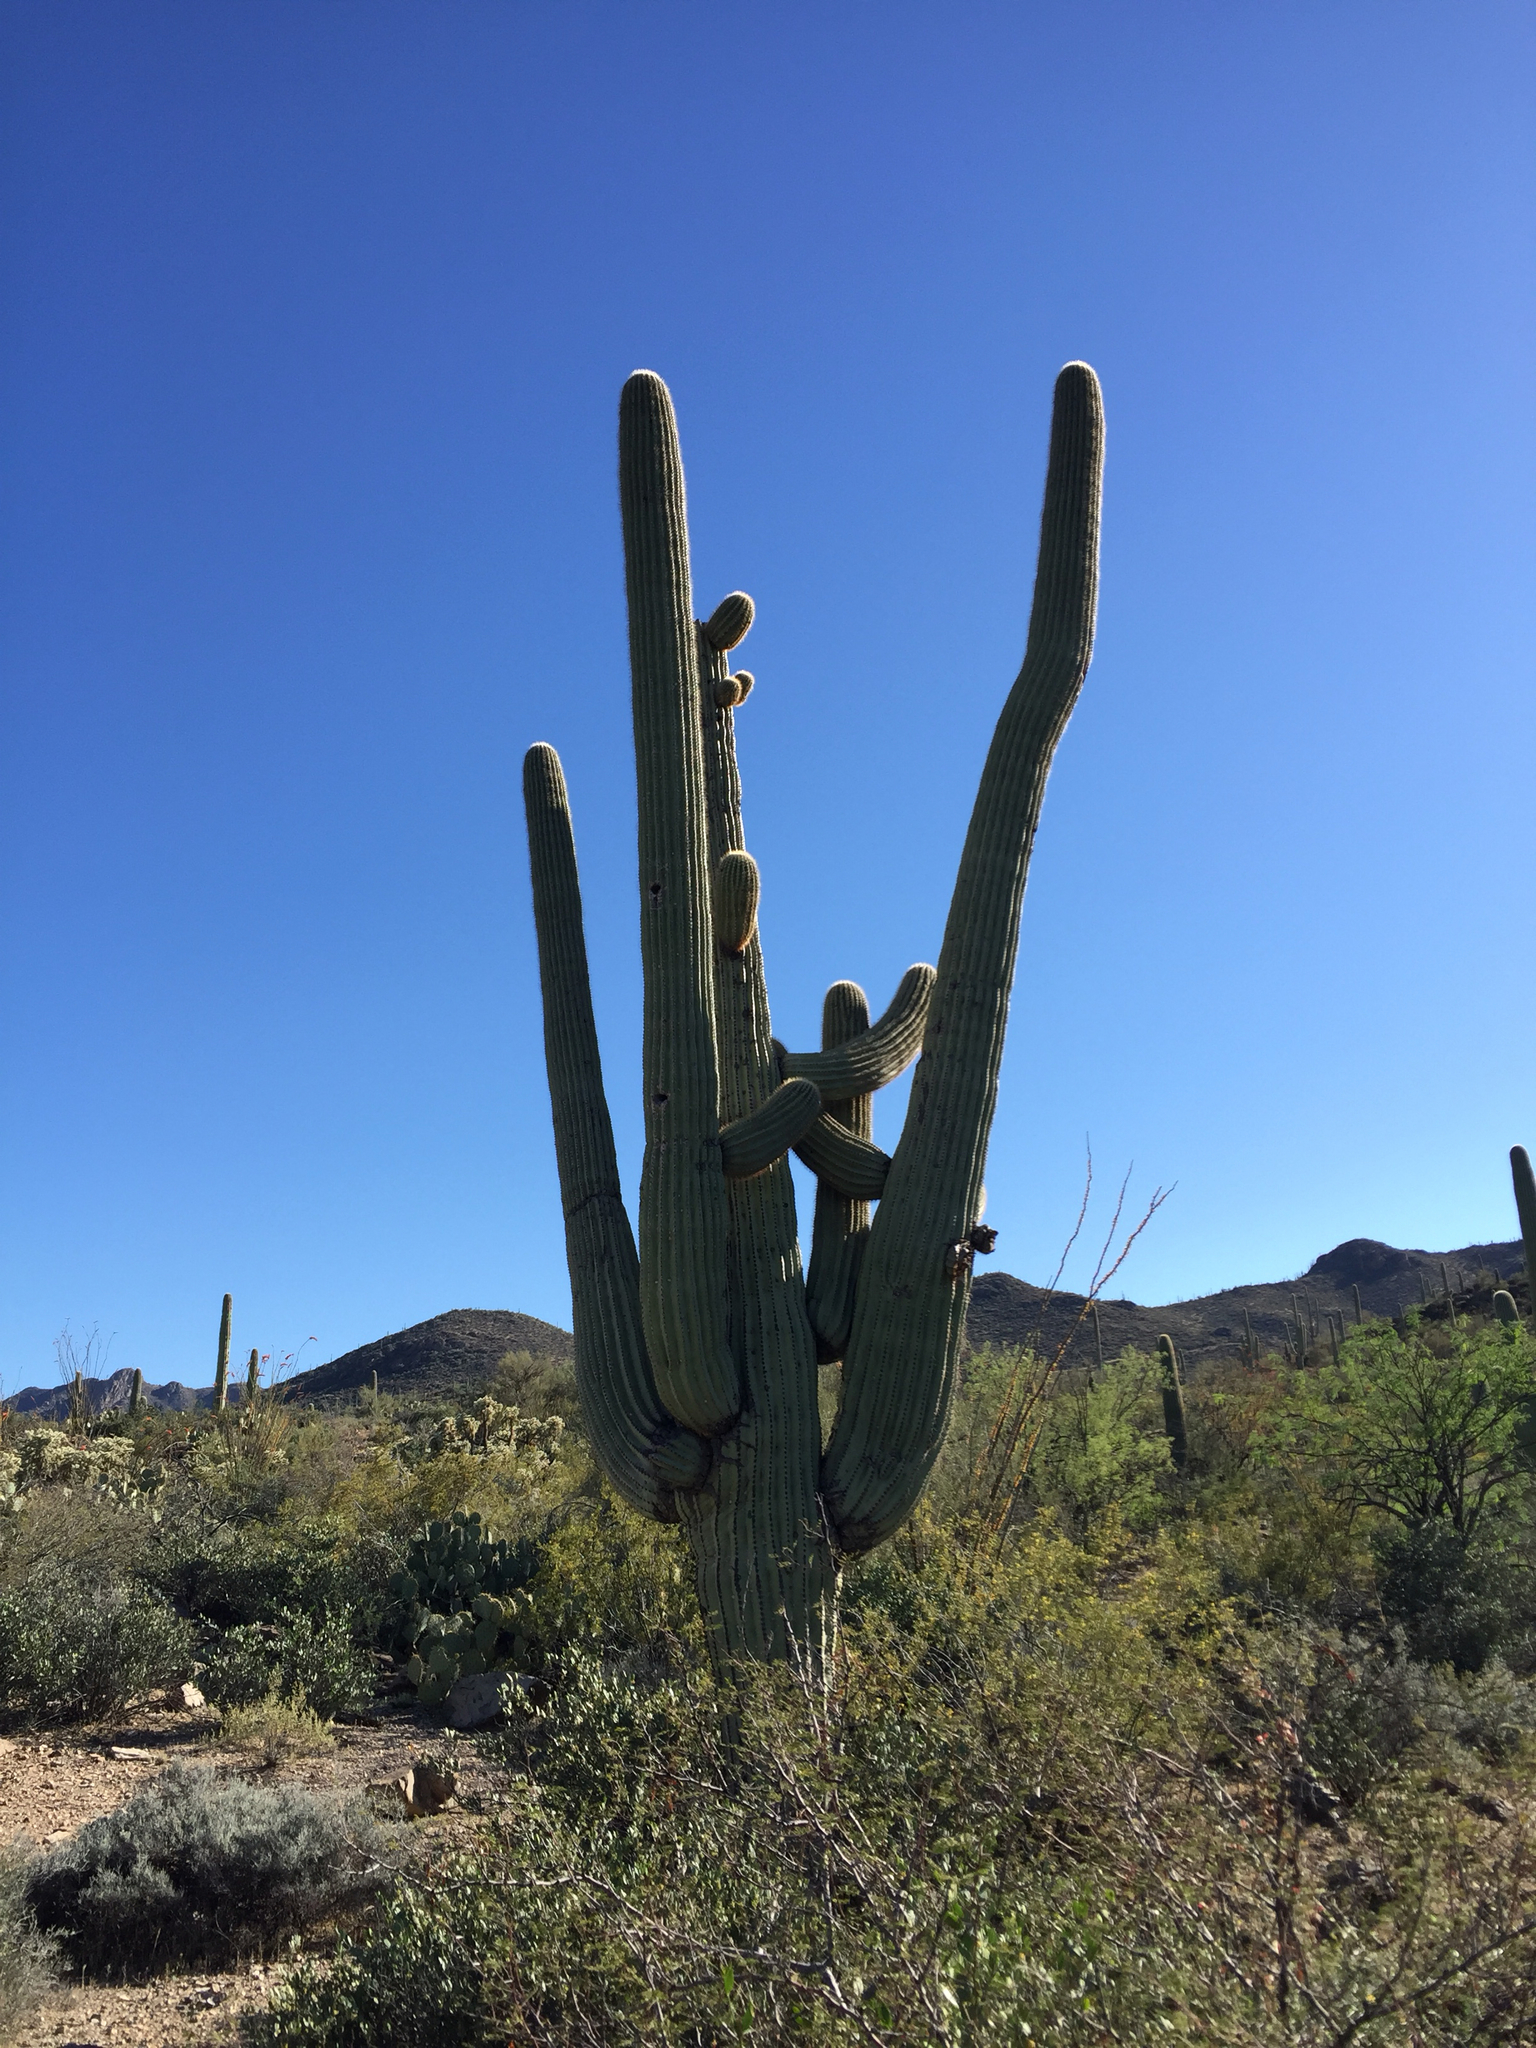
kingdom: Plantae
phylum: Tracheophyta
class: Magnoliopsida
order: Caryophyllales
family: Cactaceae
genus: Carnegiea
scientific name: Carnegiea gigantea
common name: Saguaro
